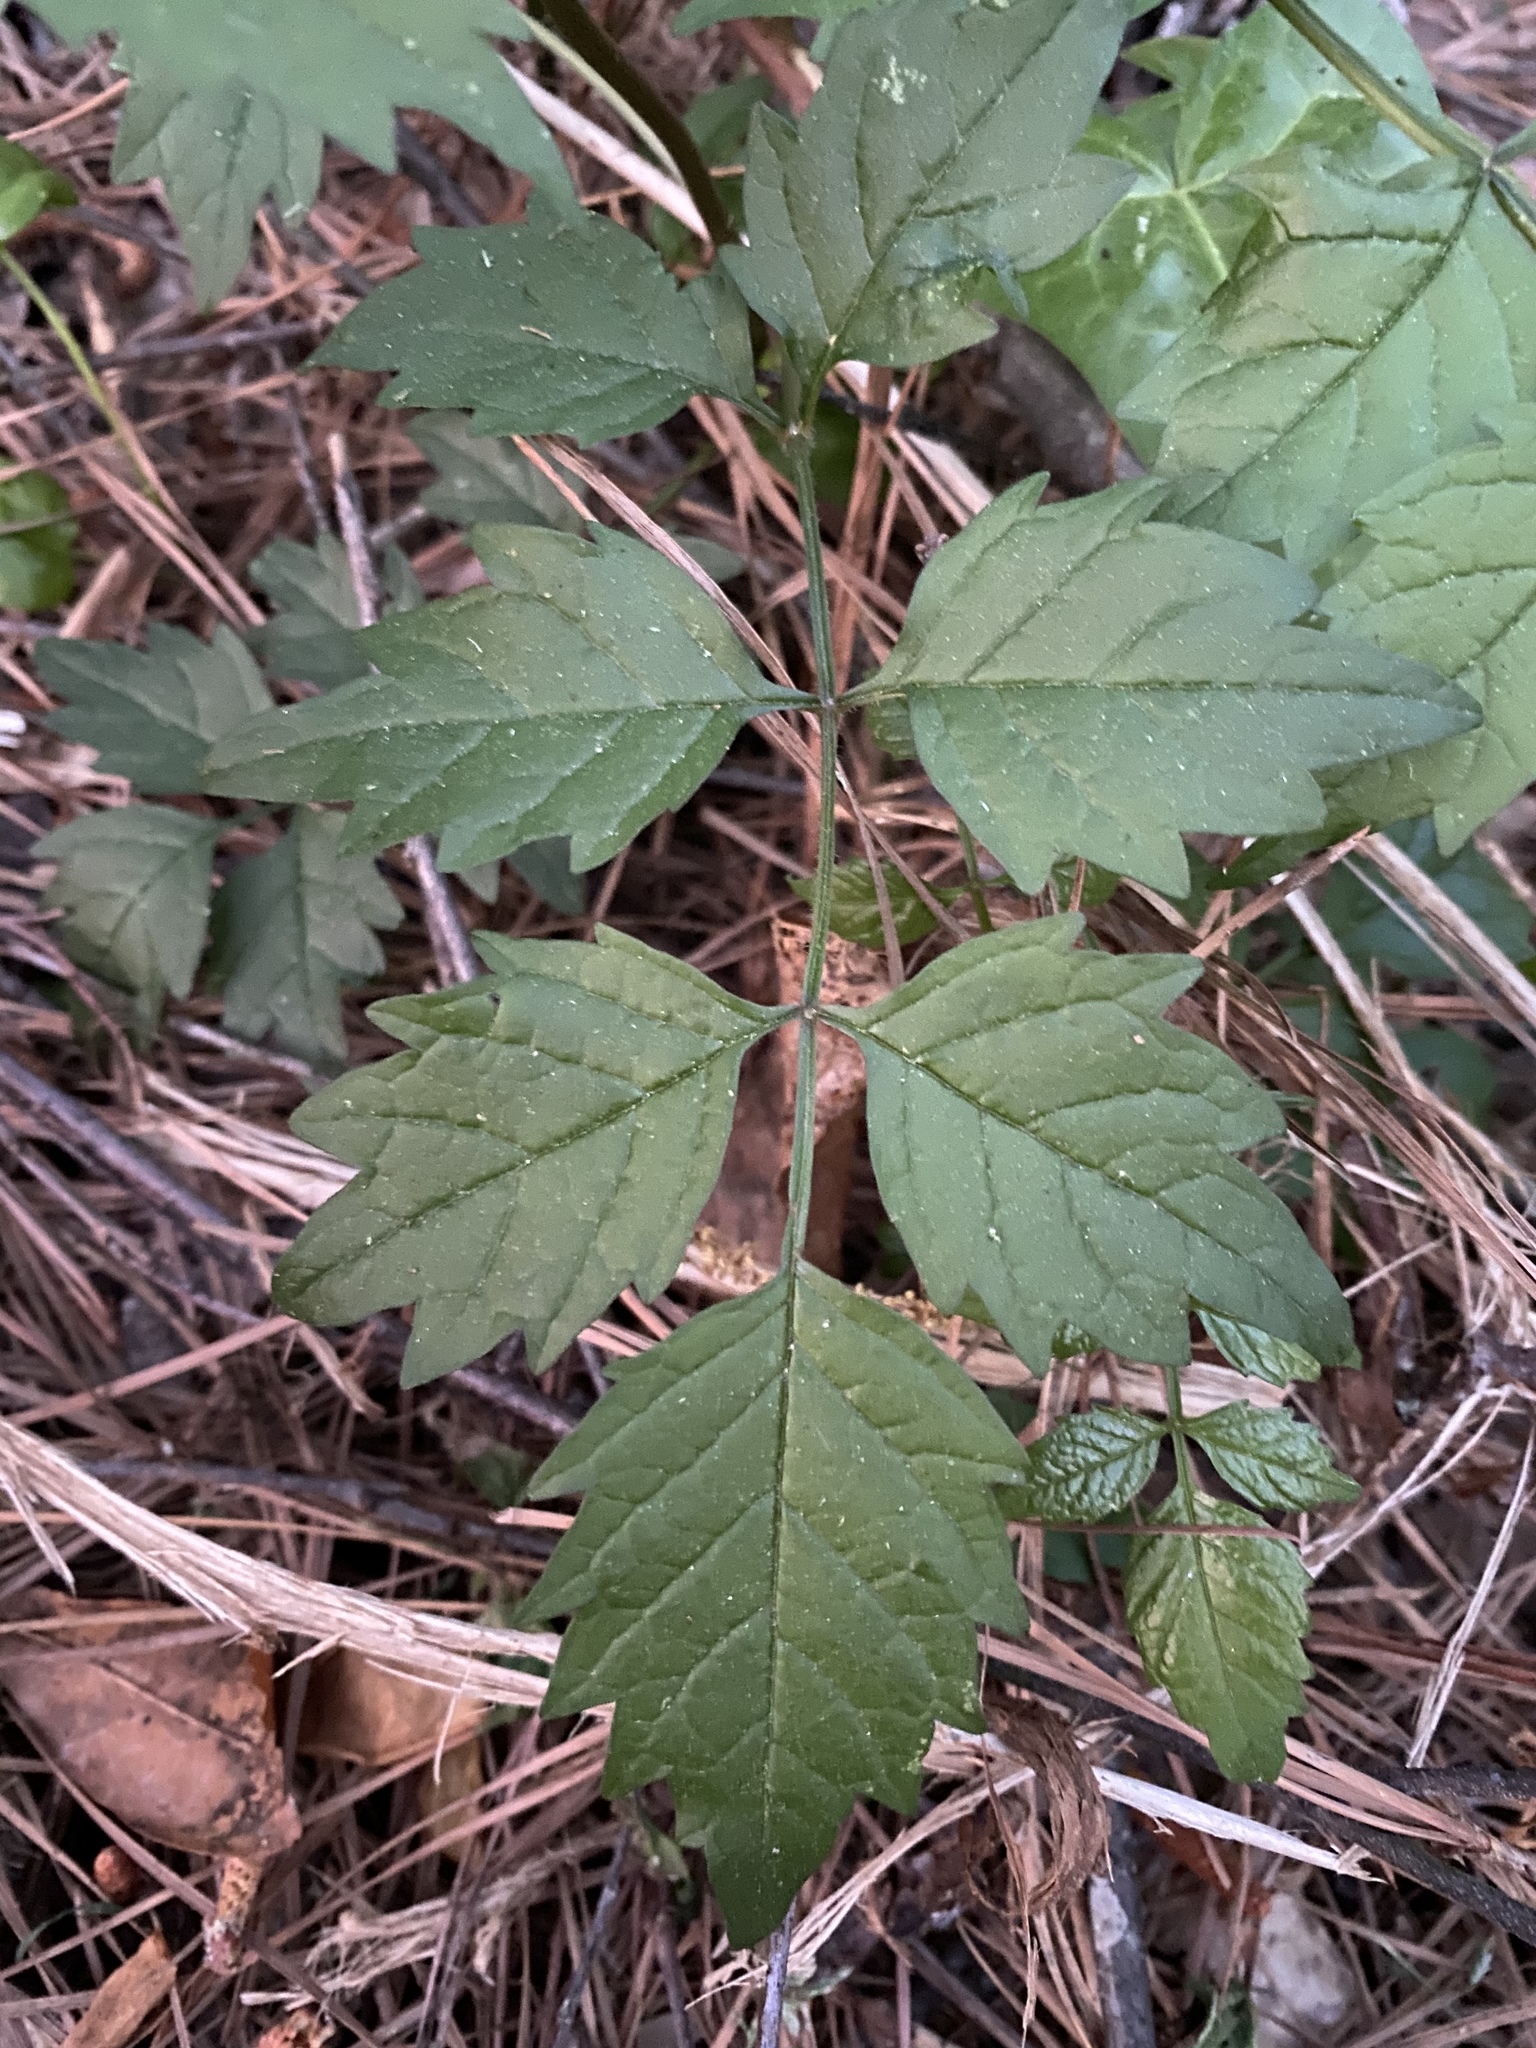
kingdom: Plantae
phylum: Tracheophyta
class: Magnoliopsida
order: Lamiales
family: Bignoniaceae
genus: Campsis
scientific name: Campsis radicans
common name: Trumpet-creeper
